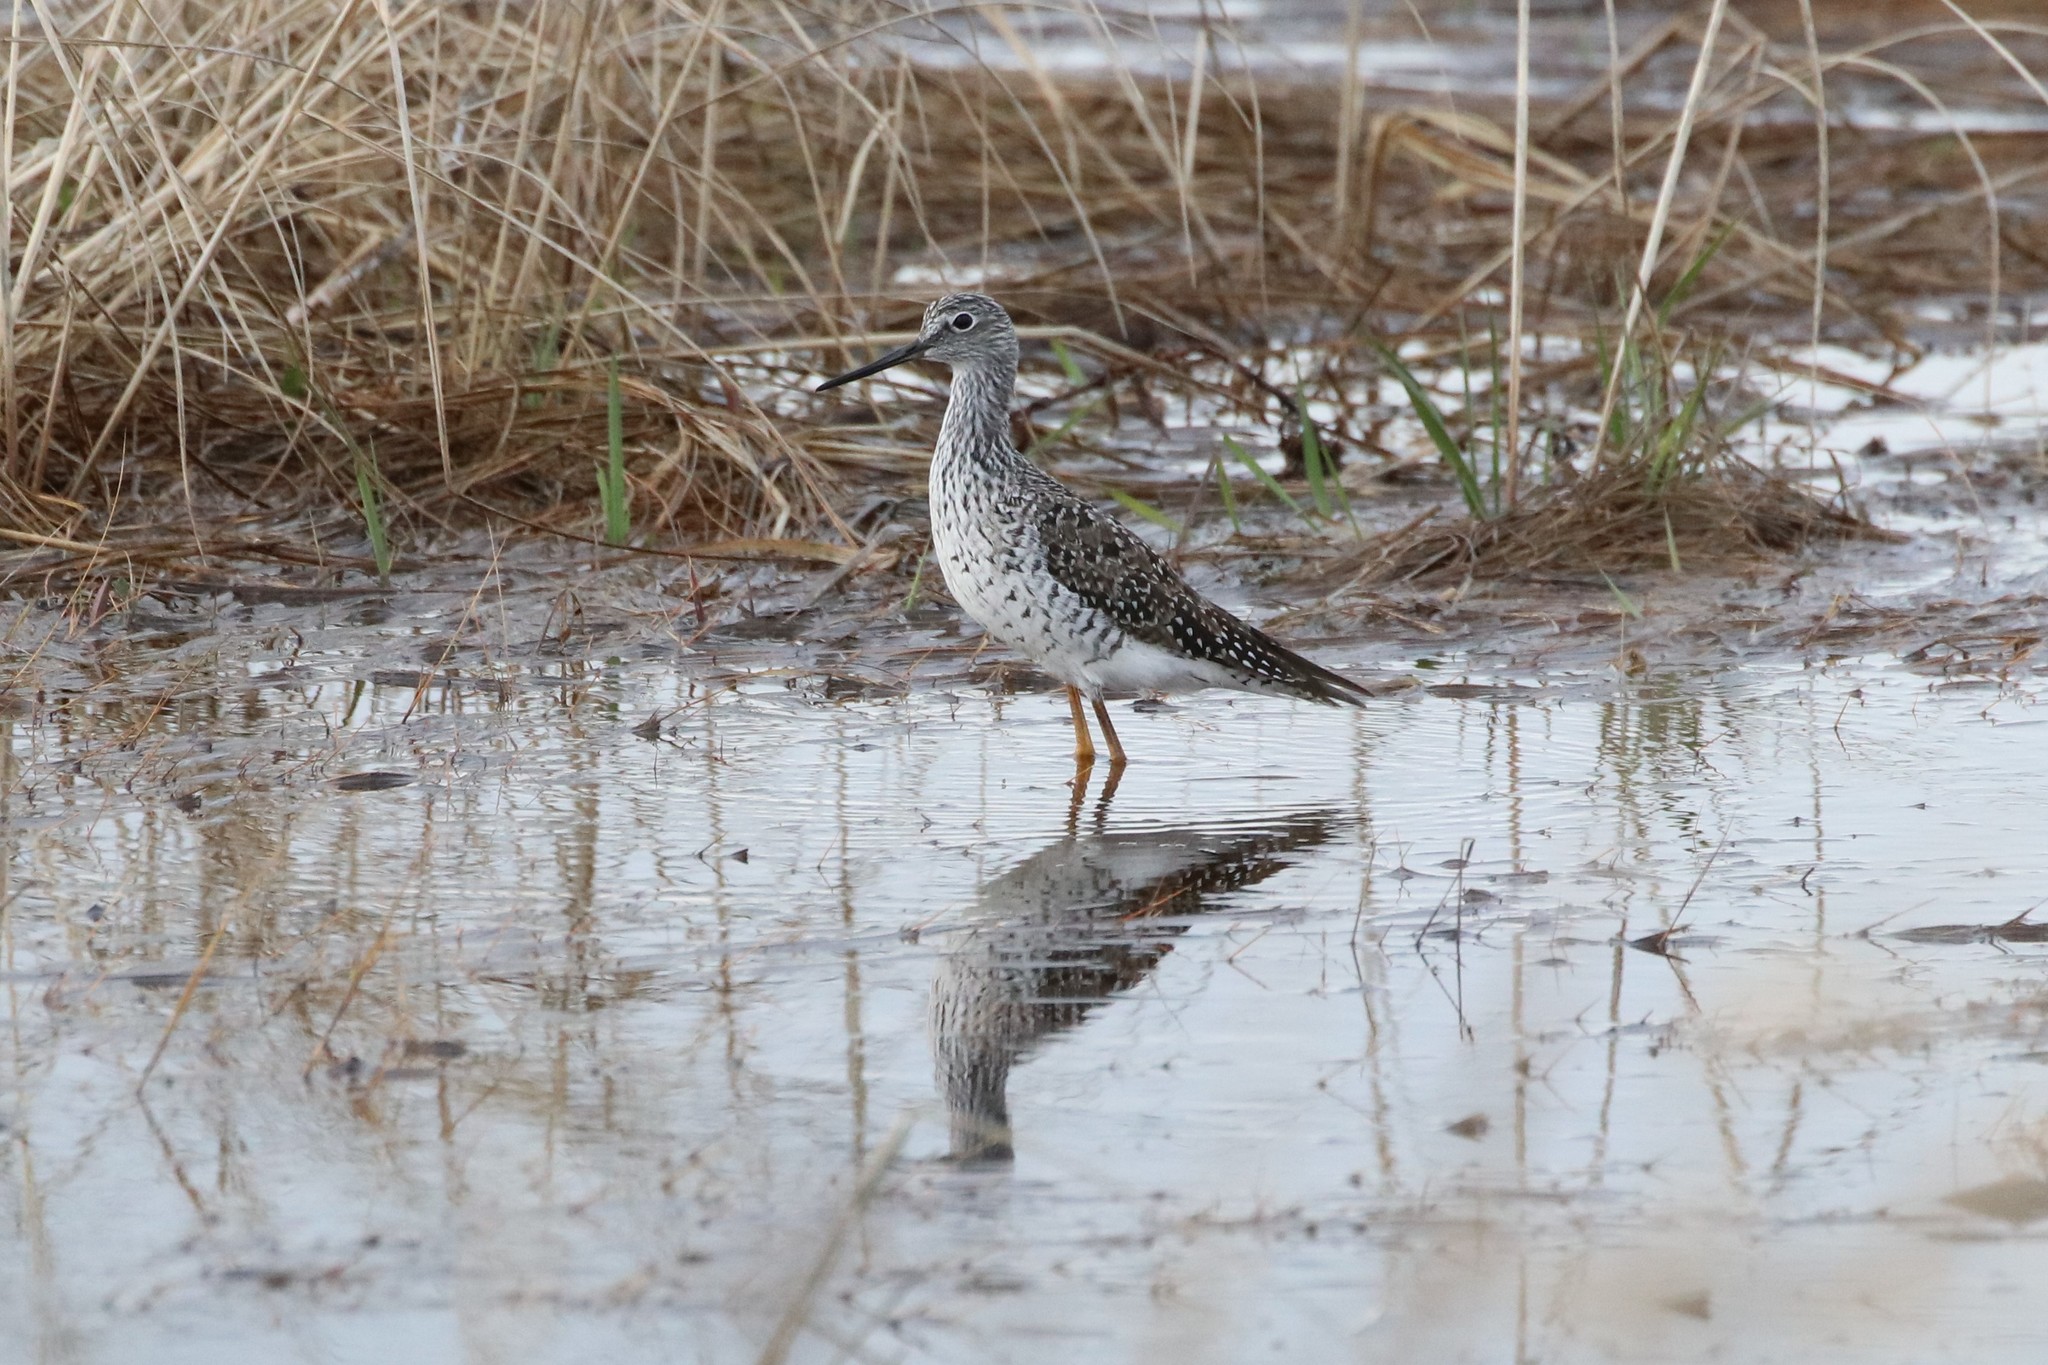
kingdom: Animalia
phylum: Chordata
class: Aves
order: Charadriiformes
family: Scolopacidae
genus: Tringa
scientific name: Tringa melanoleuca
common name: Greater yellowlegs
